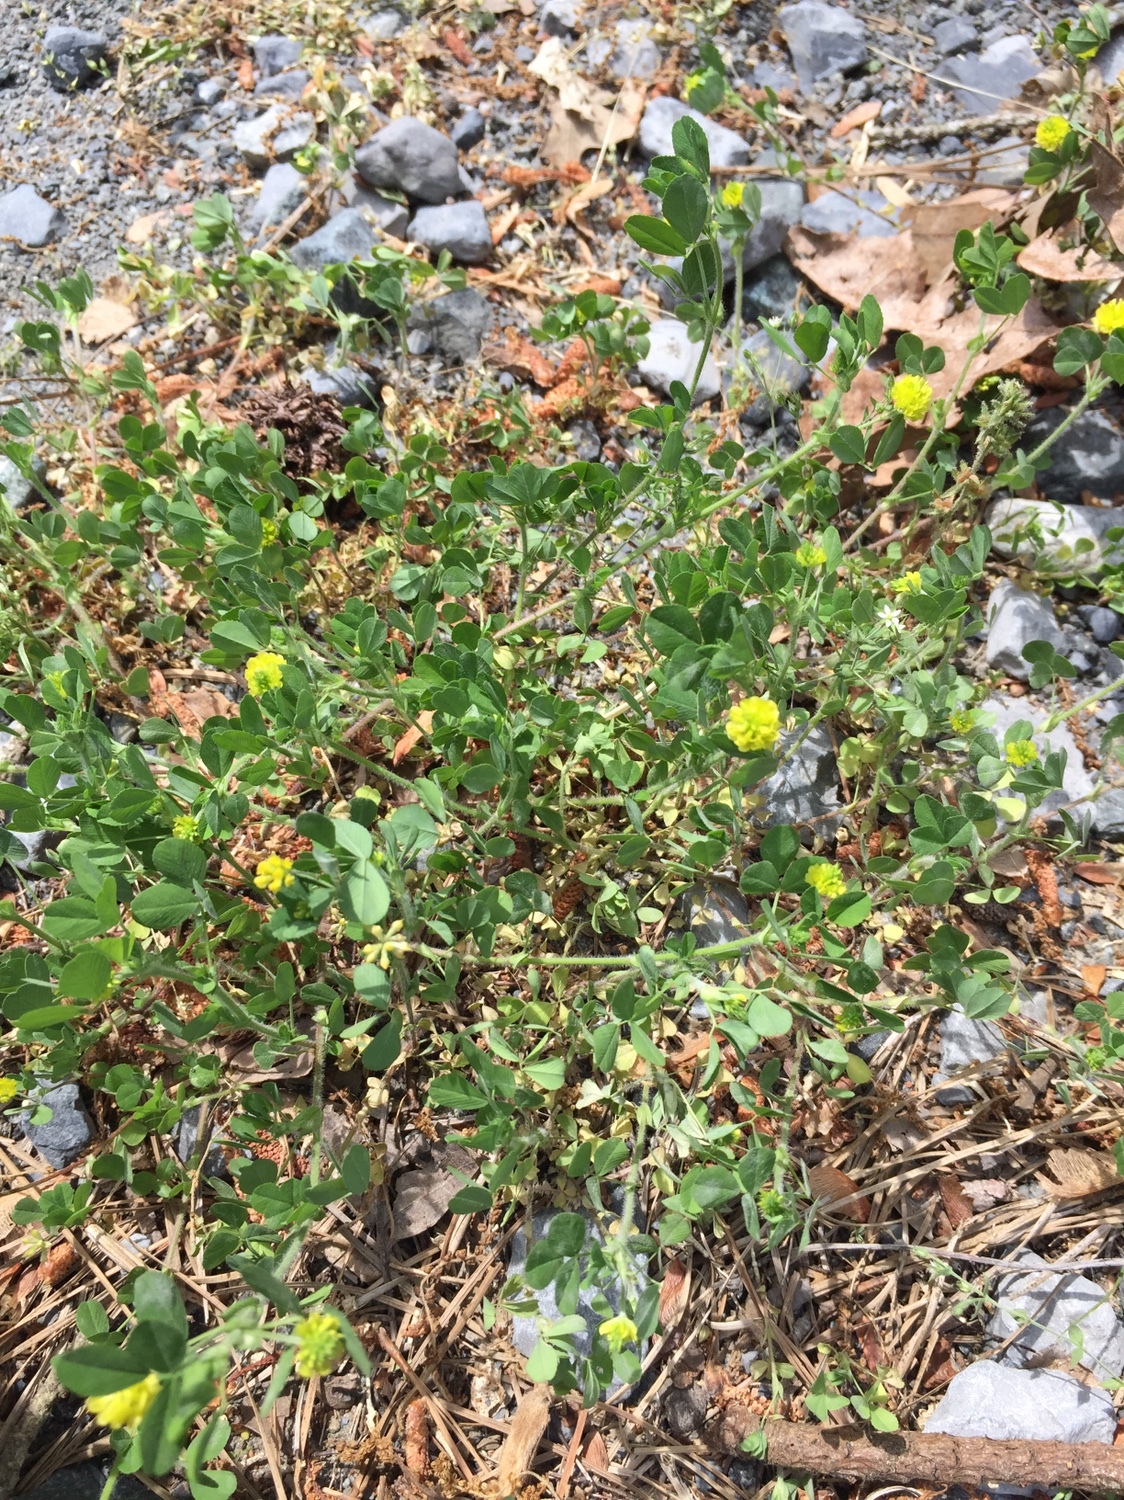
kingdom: Plantae
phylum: Tracheophyta
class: Magnoliopsida
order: Fabales
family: Fabaceae
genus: Medicago
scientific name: Medicago lupulina
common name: Black medick
